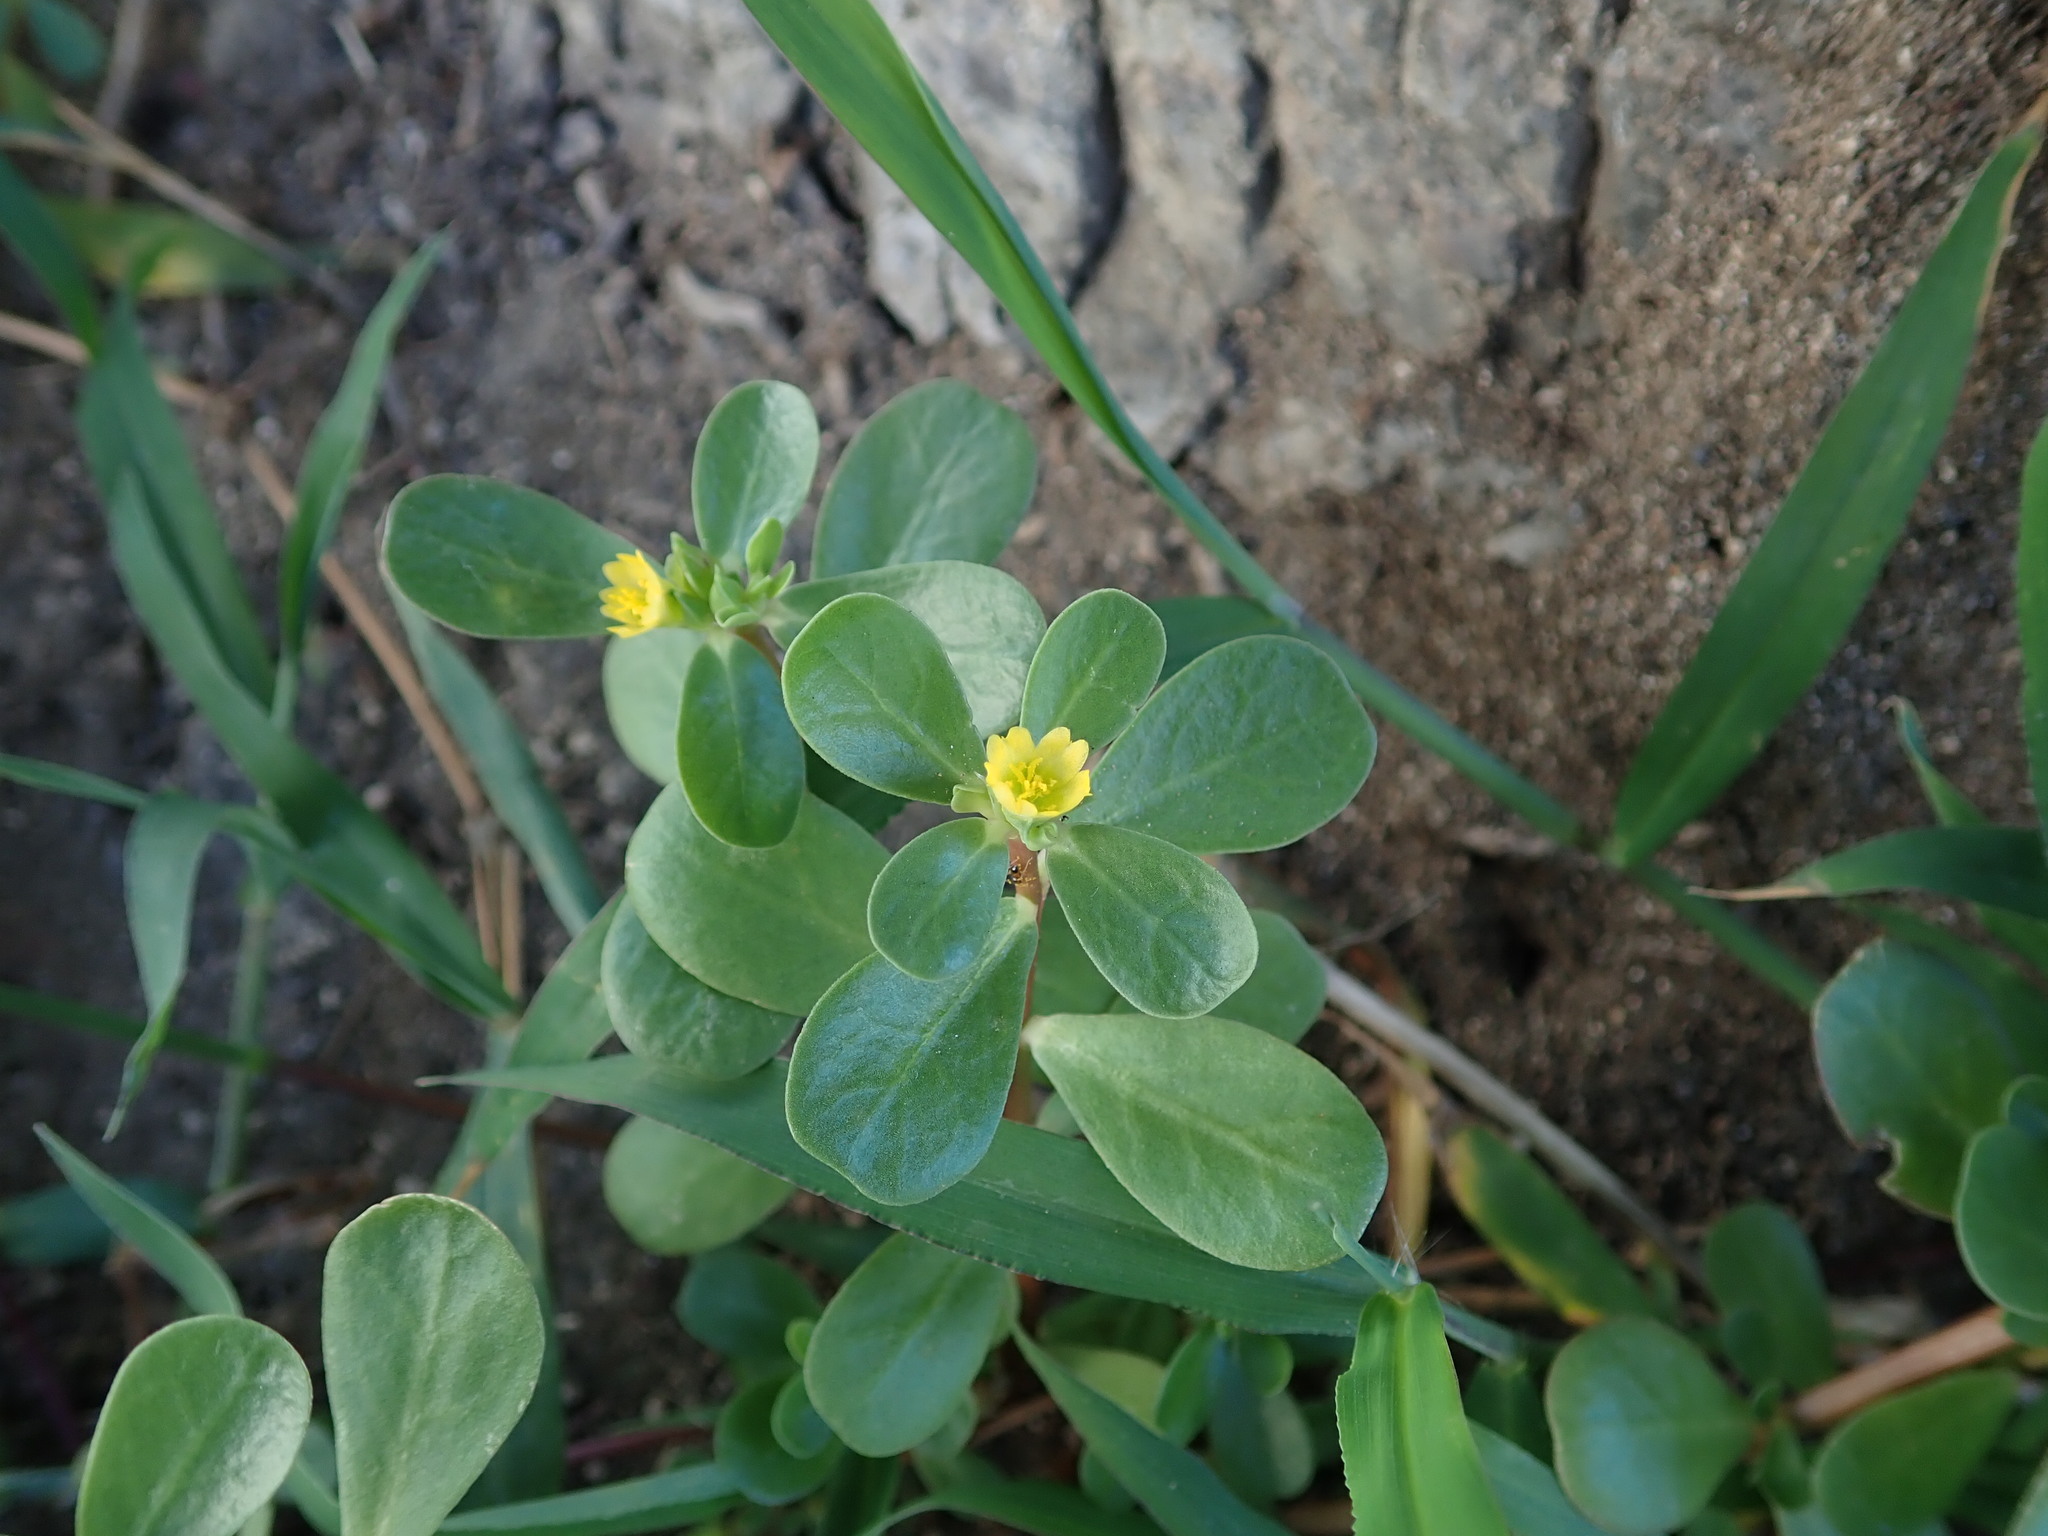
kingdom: Plantae
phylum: Tracheophyta
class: Magnoliopsida
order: Caryophyllales
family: Portulacaceae
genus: Portulaca
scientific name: Portulaca oleracea
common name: Common purslane
